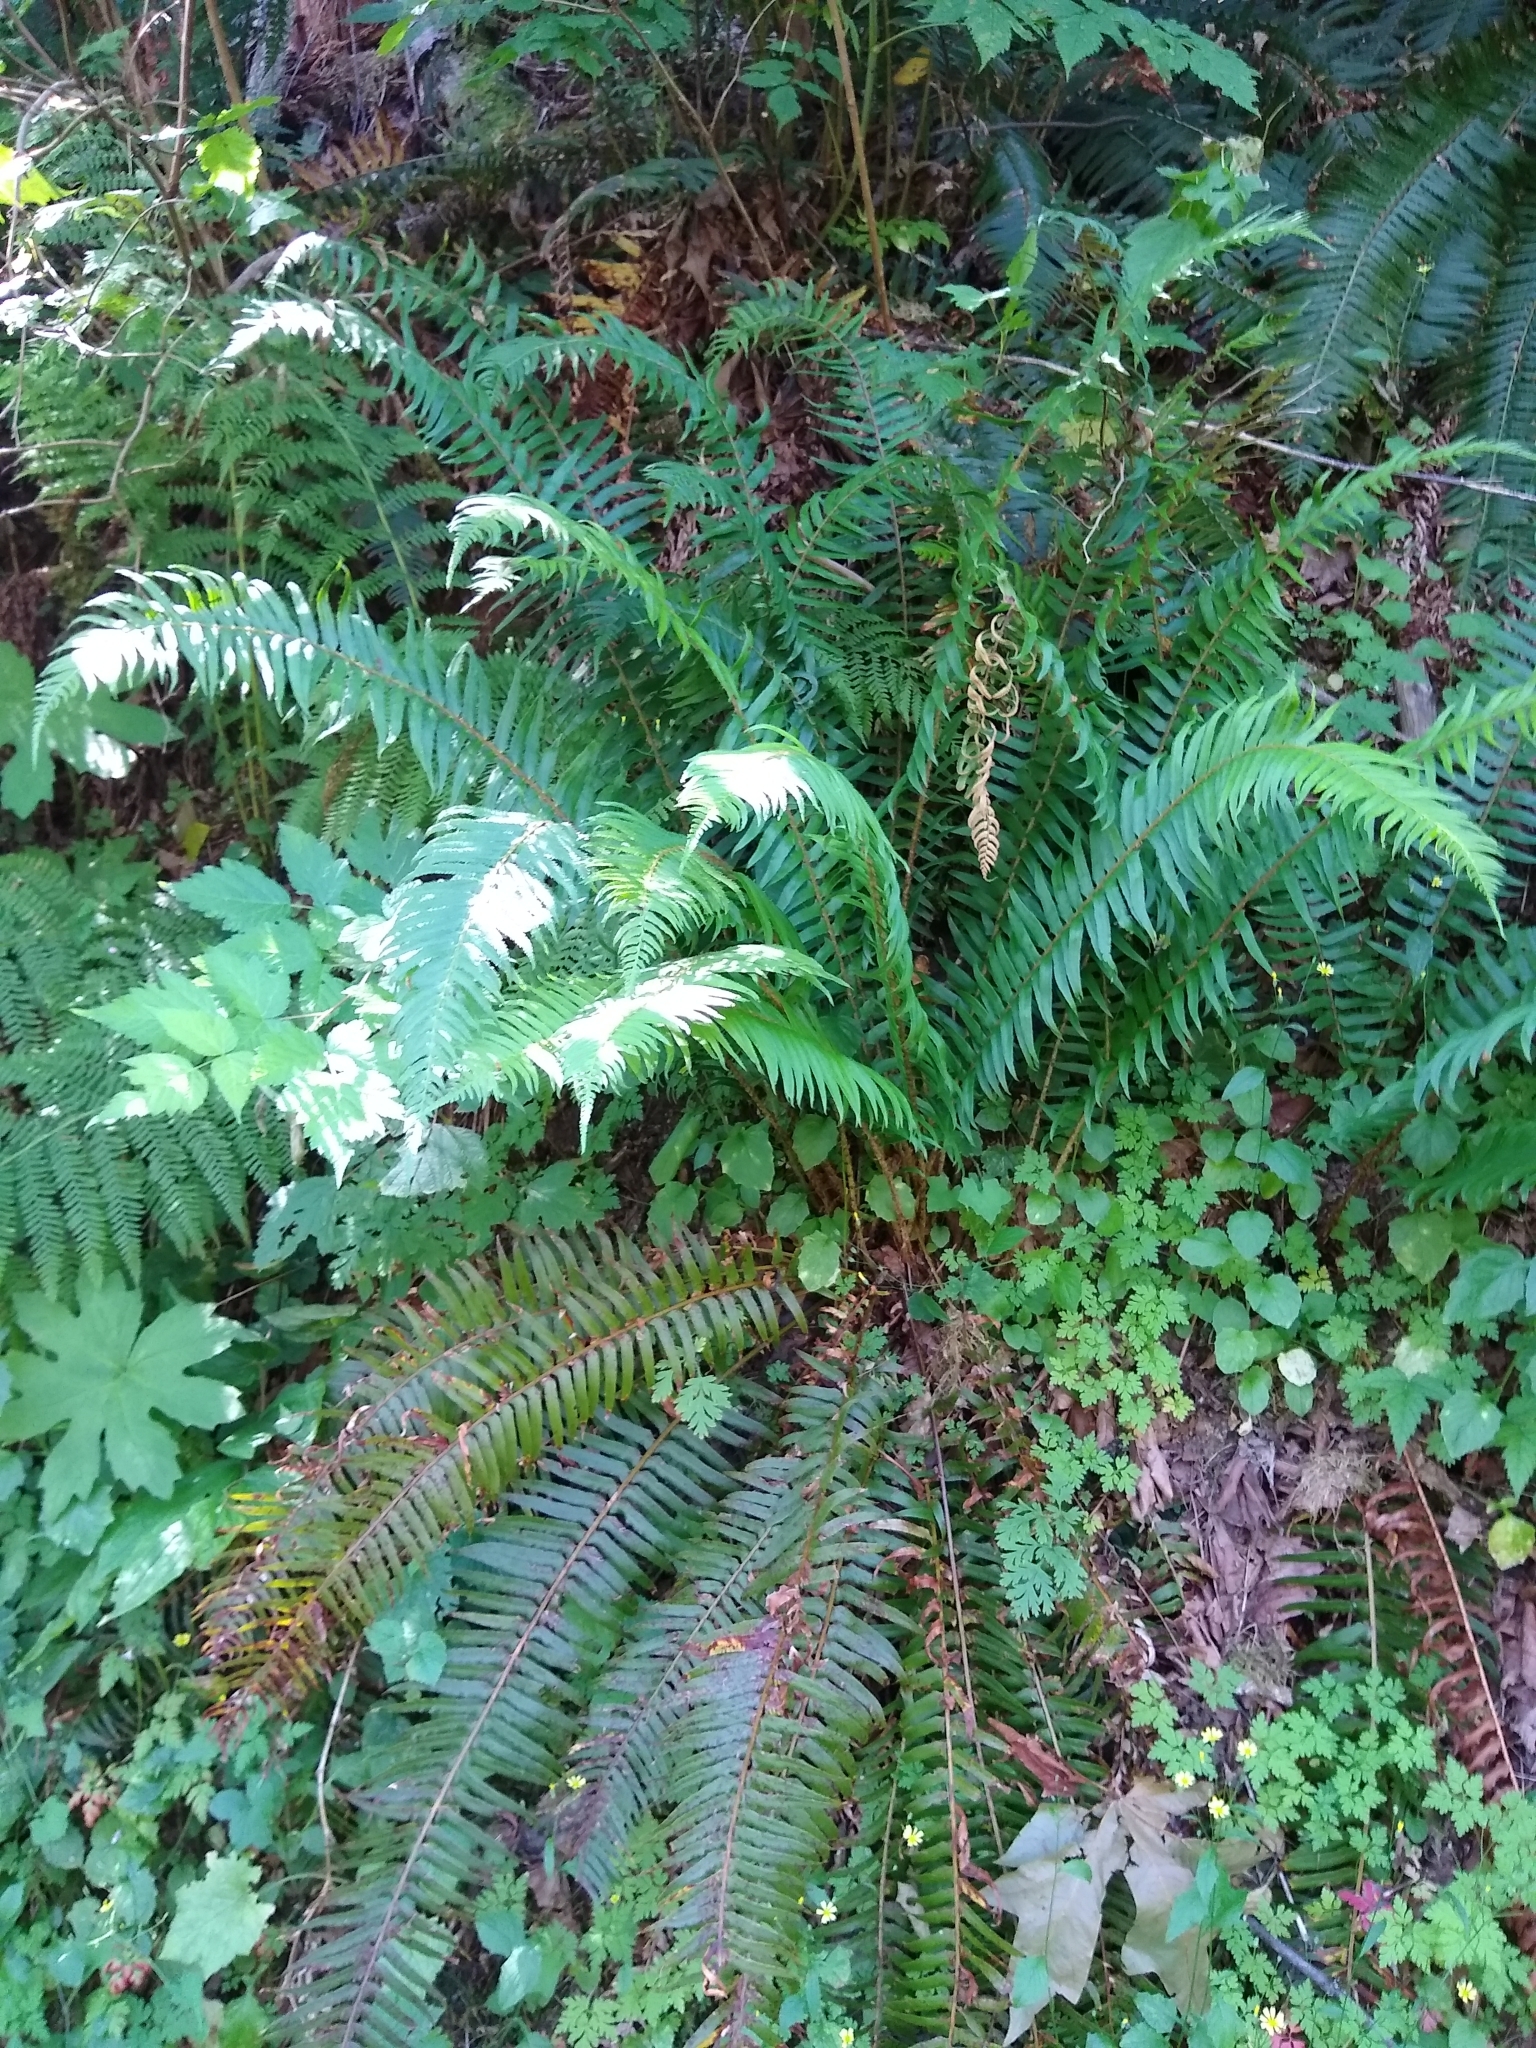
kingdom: Plantae
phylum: Tracheophyta
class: Polypodiopsida
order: Polypodiales
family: Dryopteridaceae
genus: Polystichum
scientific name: Polystichum munitum
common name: Western sword-fern
